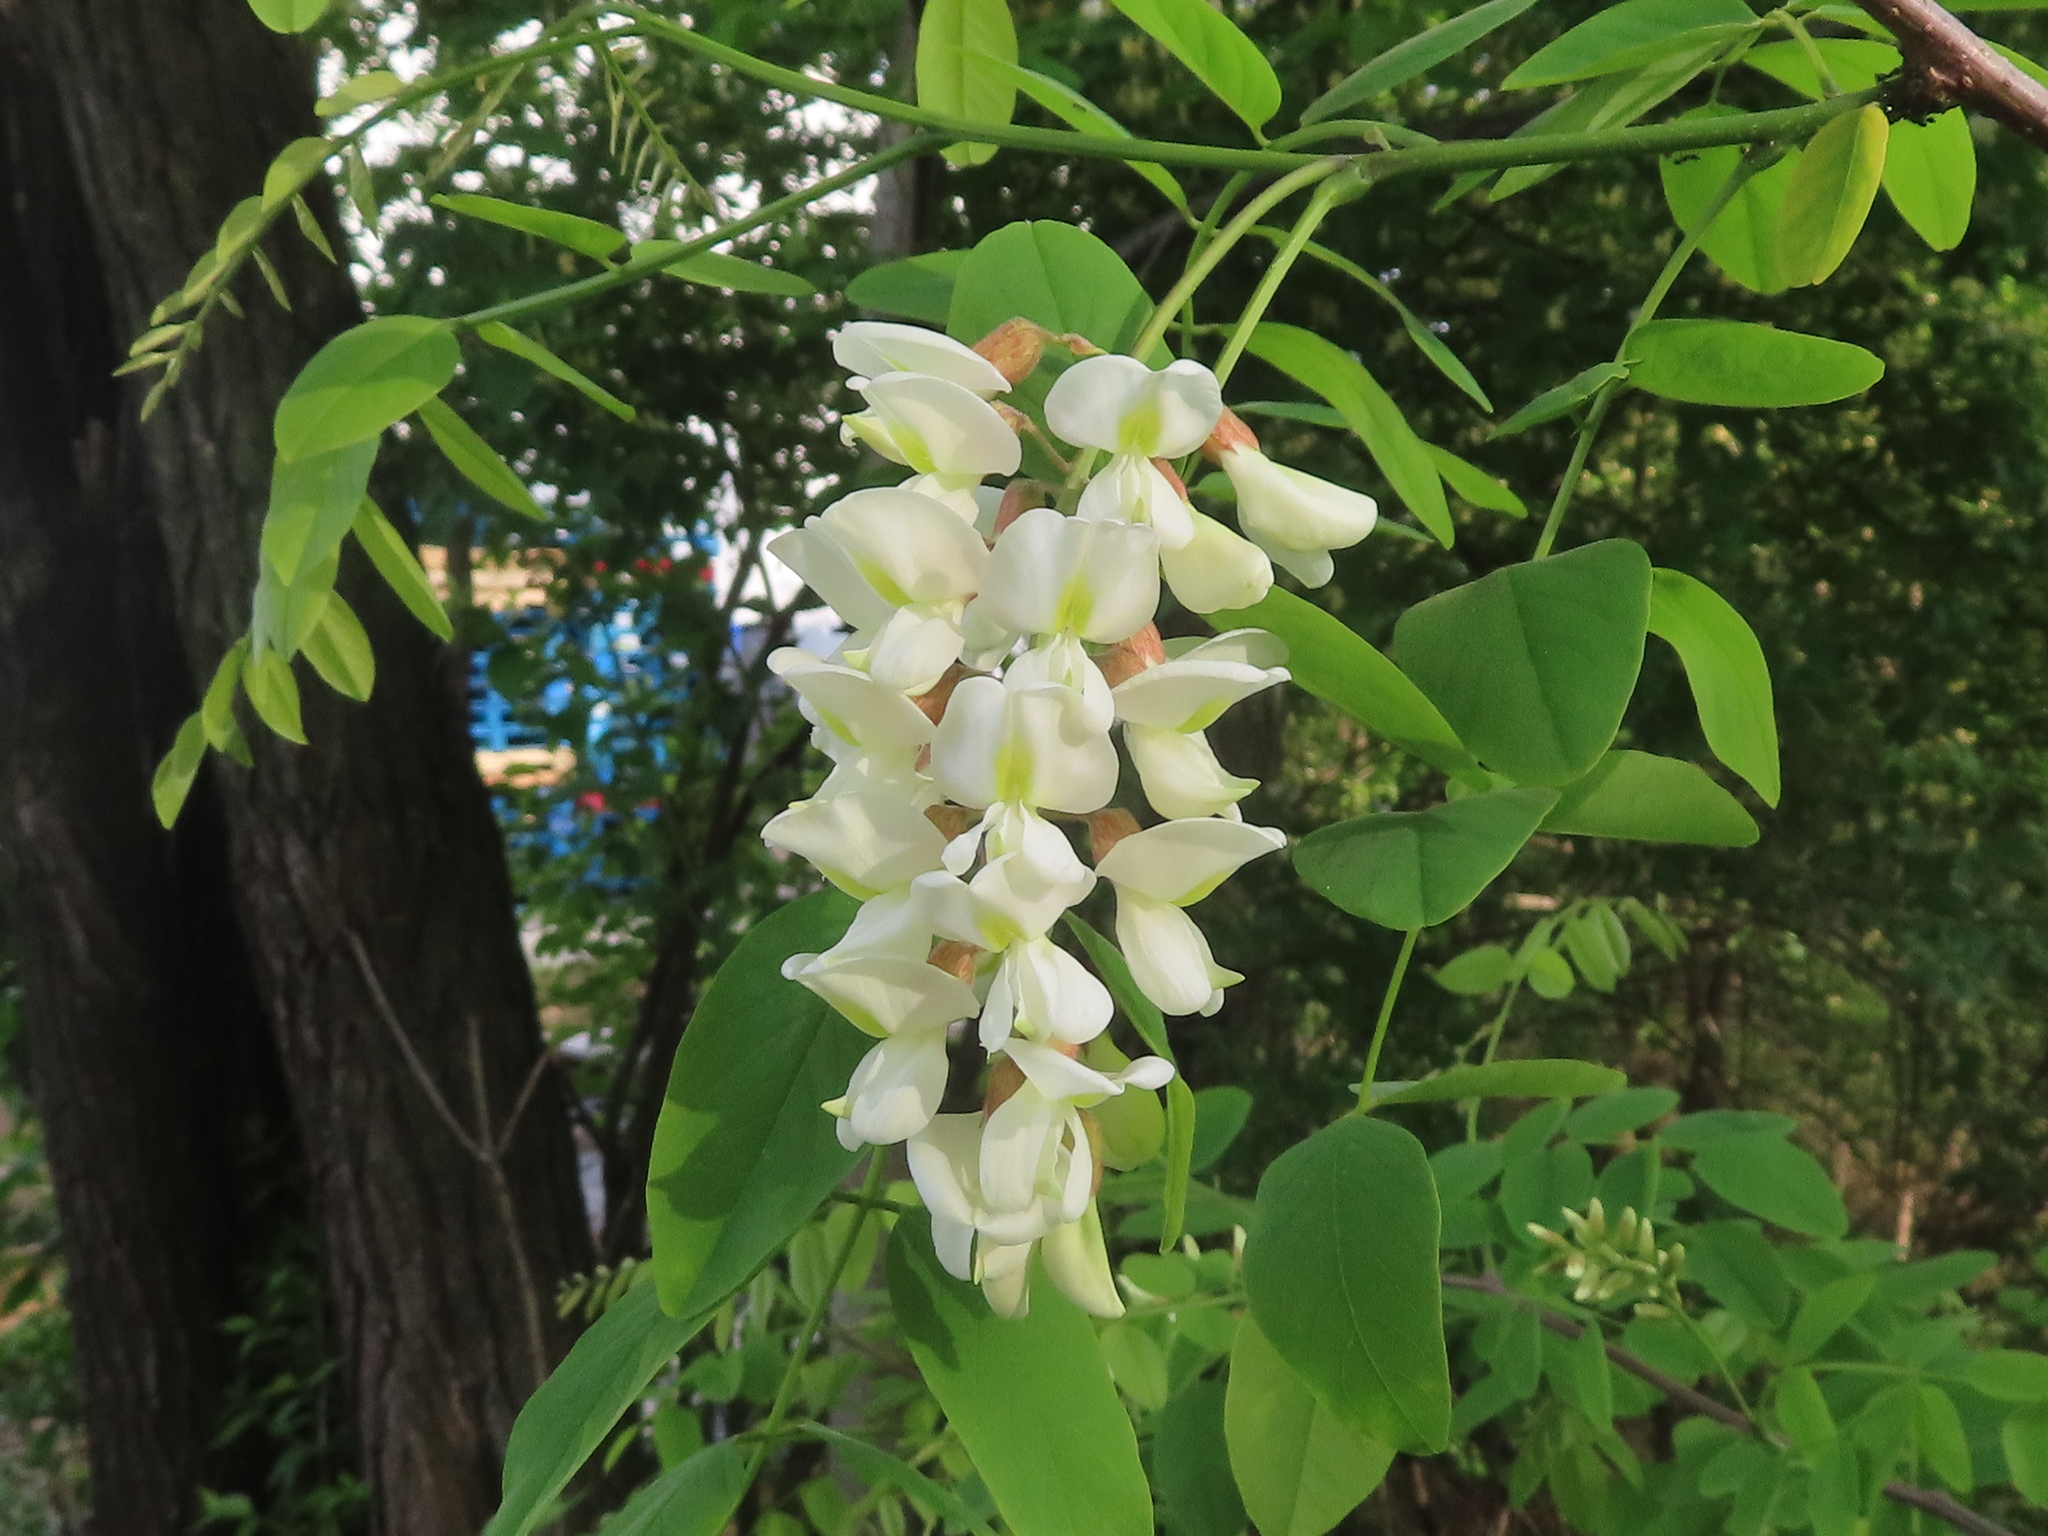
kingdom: Plantae
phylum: Tracheophyta
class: Magnoliopsida
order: Fabales
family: Fabaceae
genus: Robinia
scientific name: Robinia pseudoacacia
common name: Black locust
